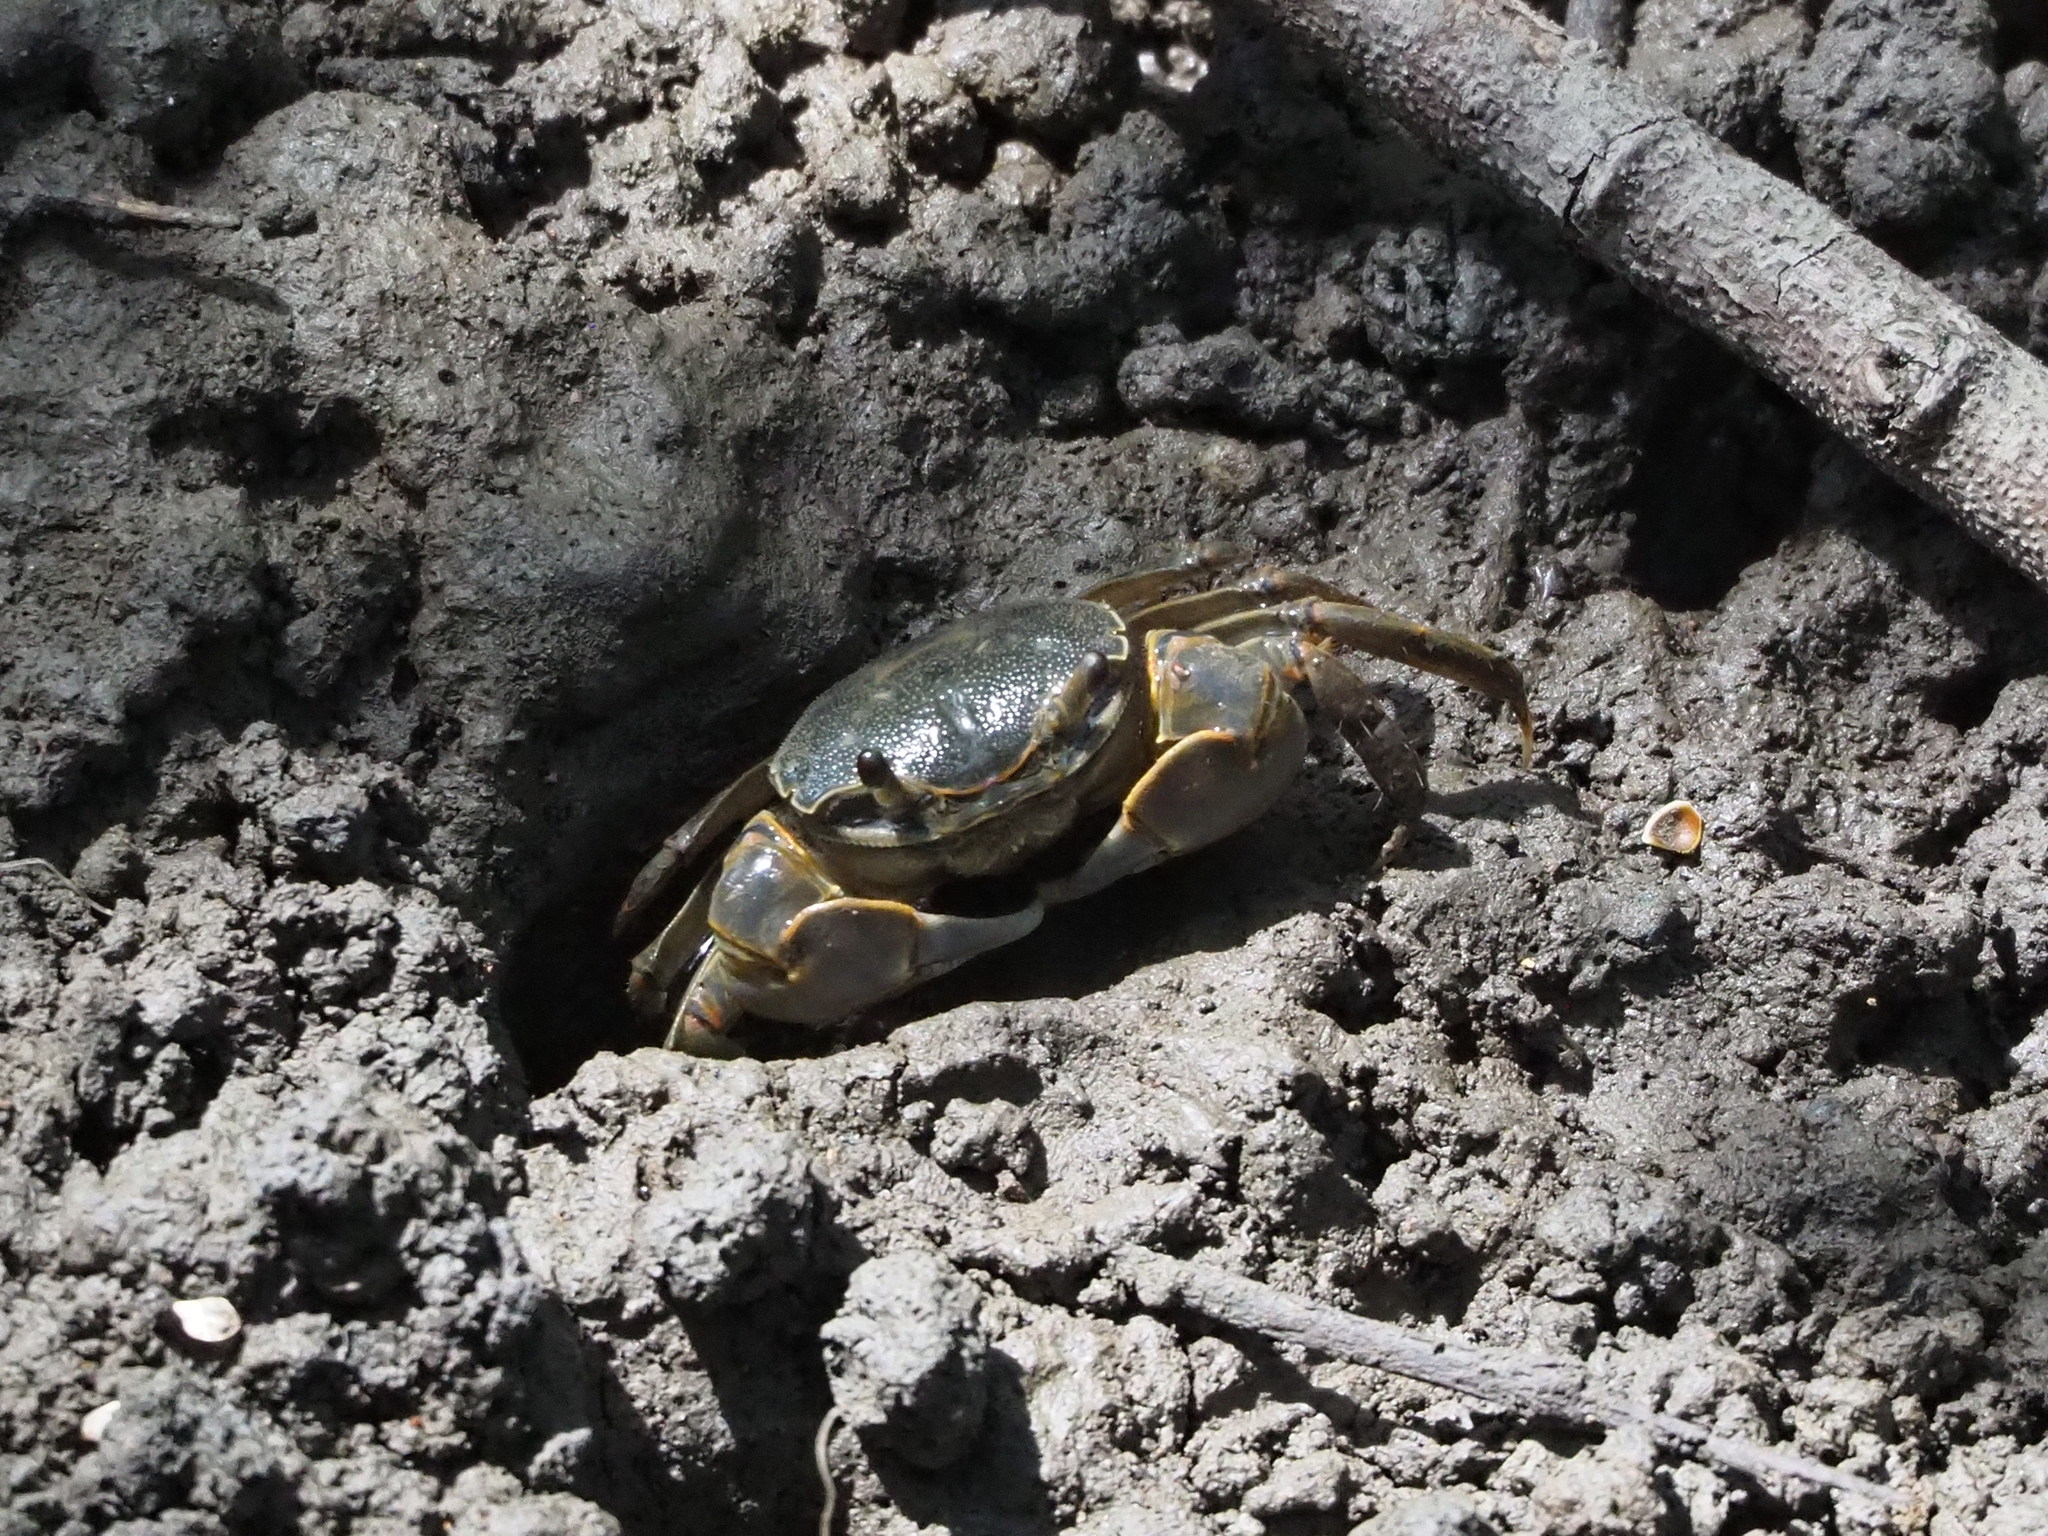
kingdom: Animalia
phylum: Arthropoda
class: Malacostraca
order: Decapoda
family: Varunidae
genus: Helice
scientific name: Helice formosensis
